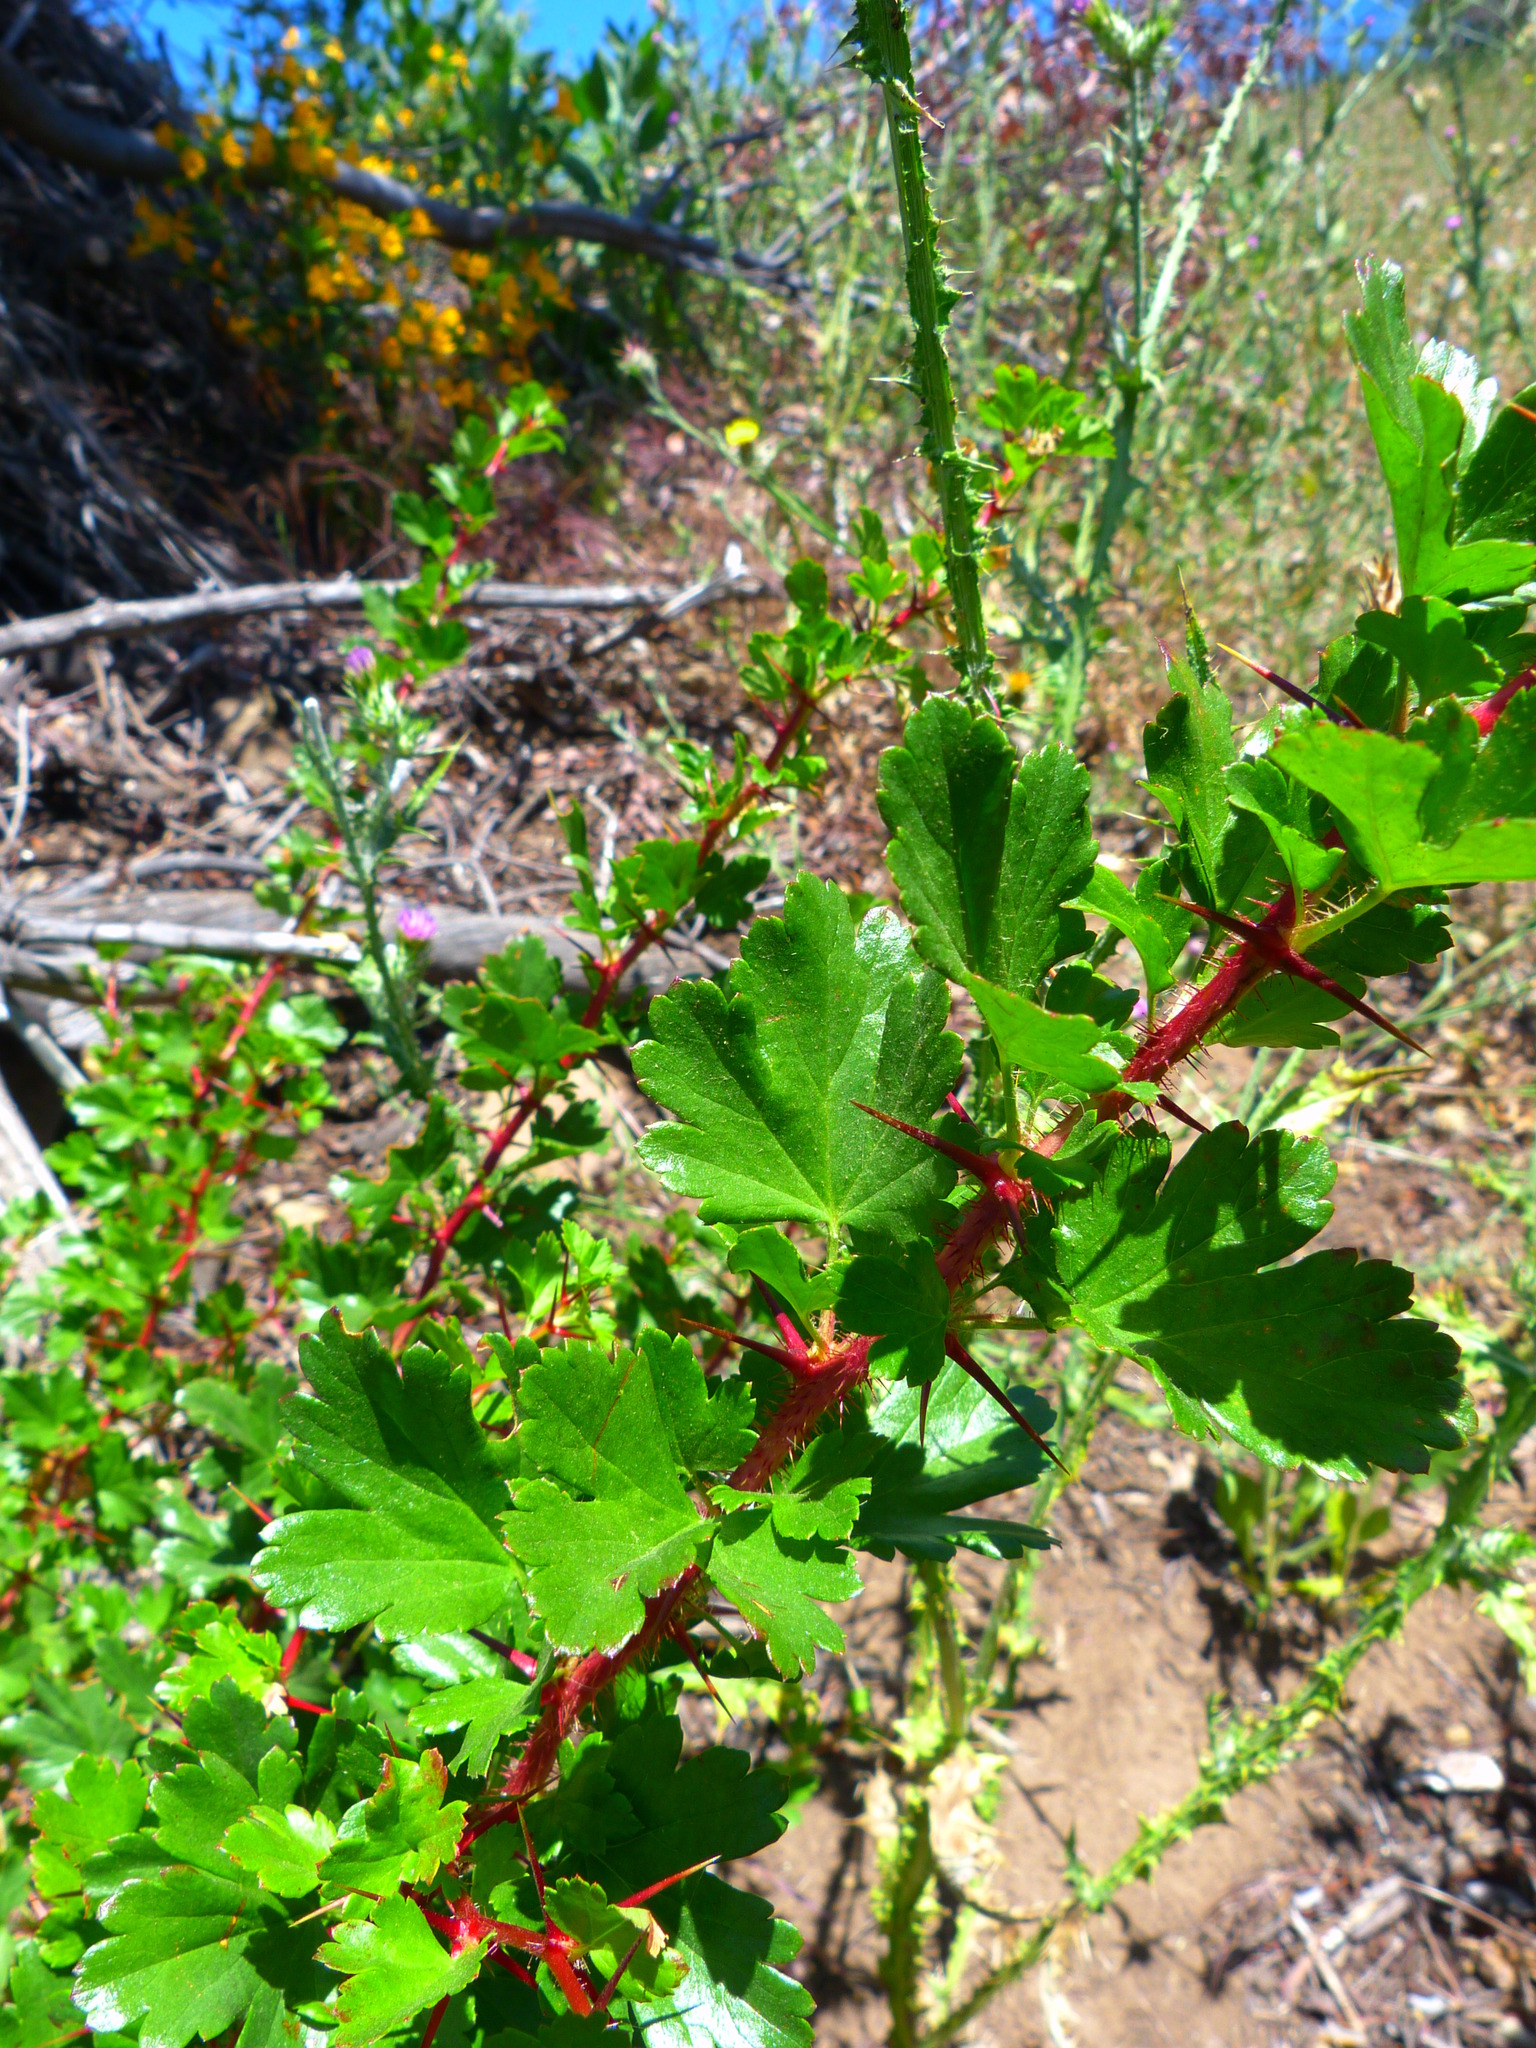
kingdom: Plantae
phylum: Tracheophyta
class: Magnoliopsida
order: Saxifragales
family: Grossulariaceae
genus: Ribes
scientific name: Ribes speciosum
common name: Fuchsia-flower gooseberry
